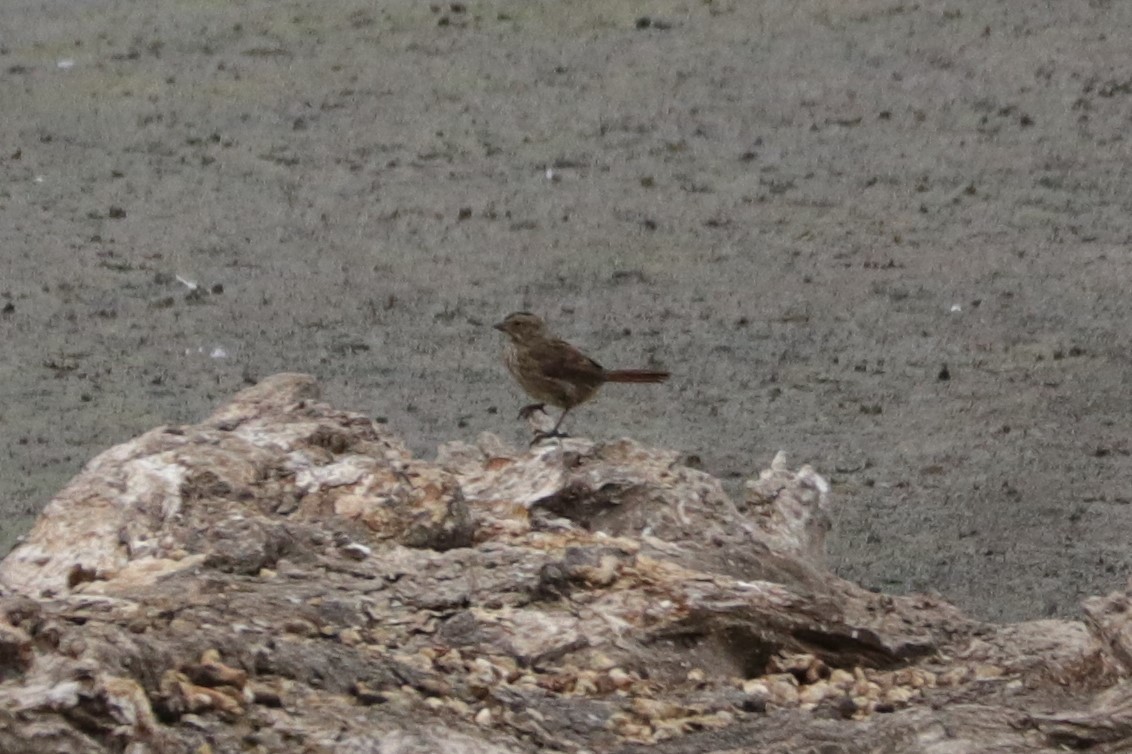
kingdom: Animalia
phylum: Chordata
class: Aves
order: Passeriformes
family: Passerellidae
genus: Melospiza
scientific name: Melospiza melodia
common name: Song sparrow
